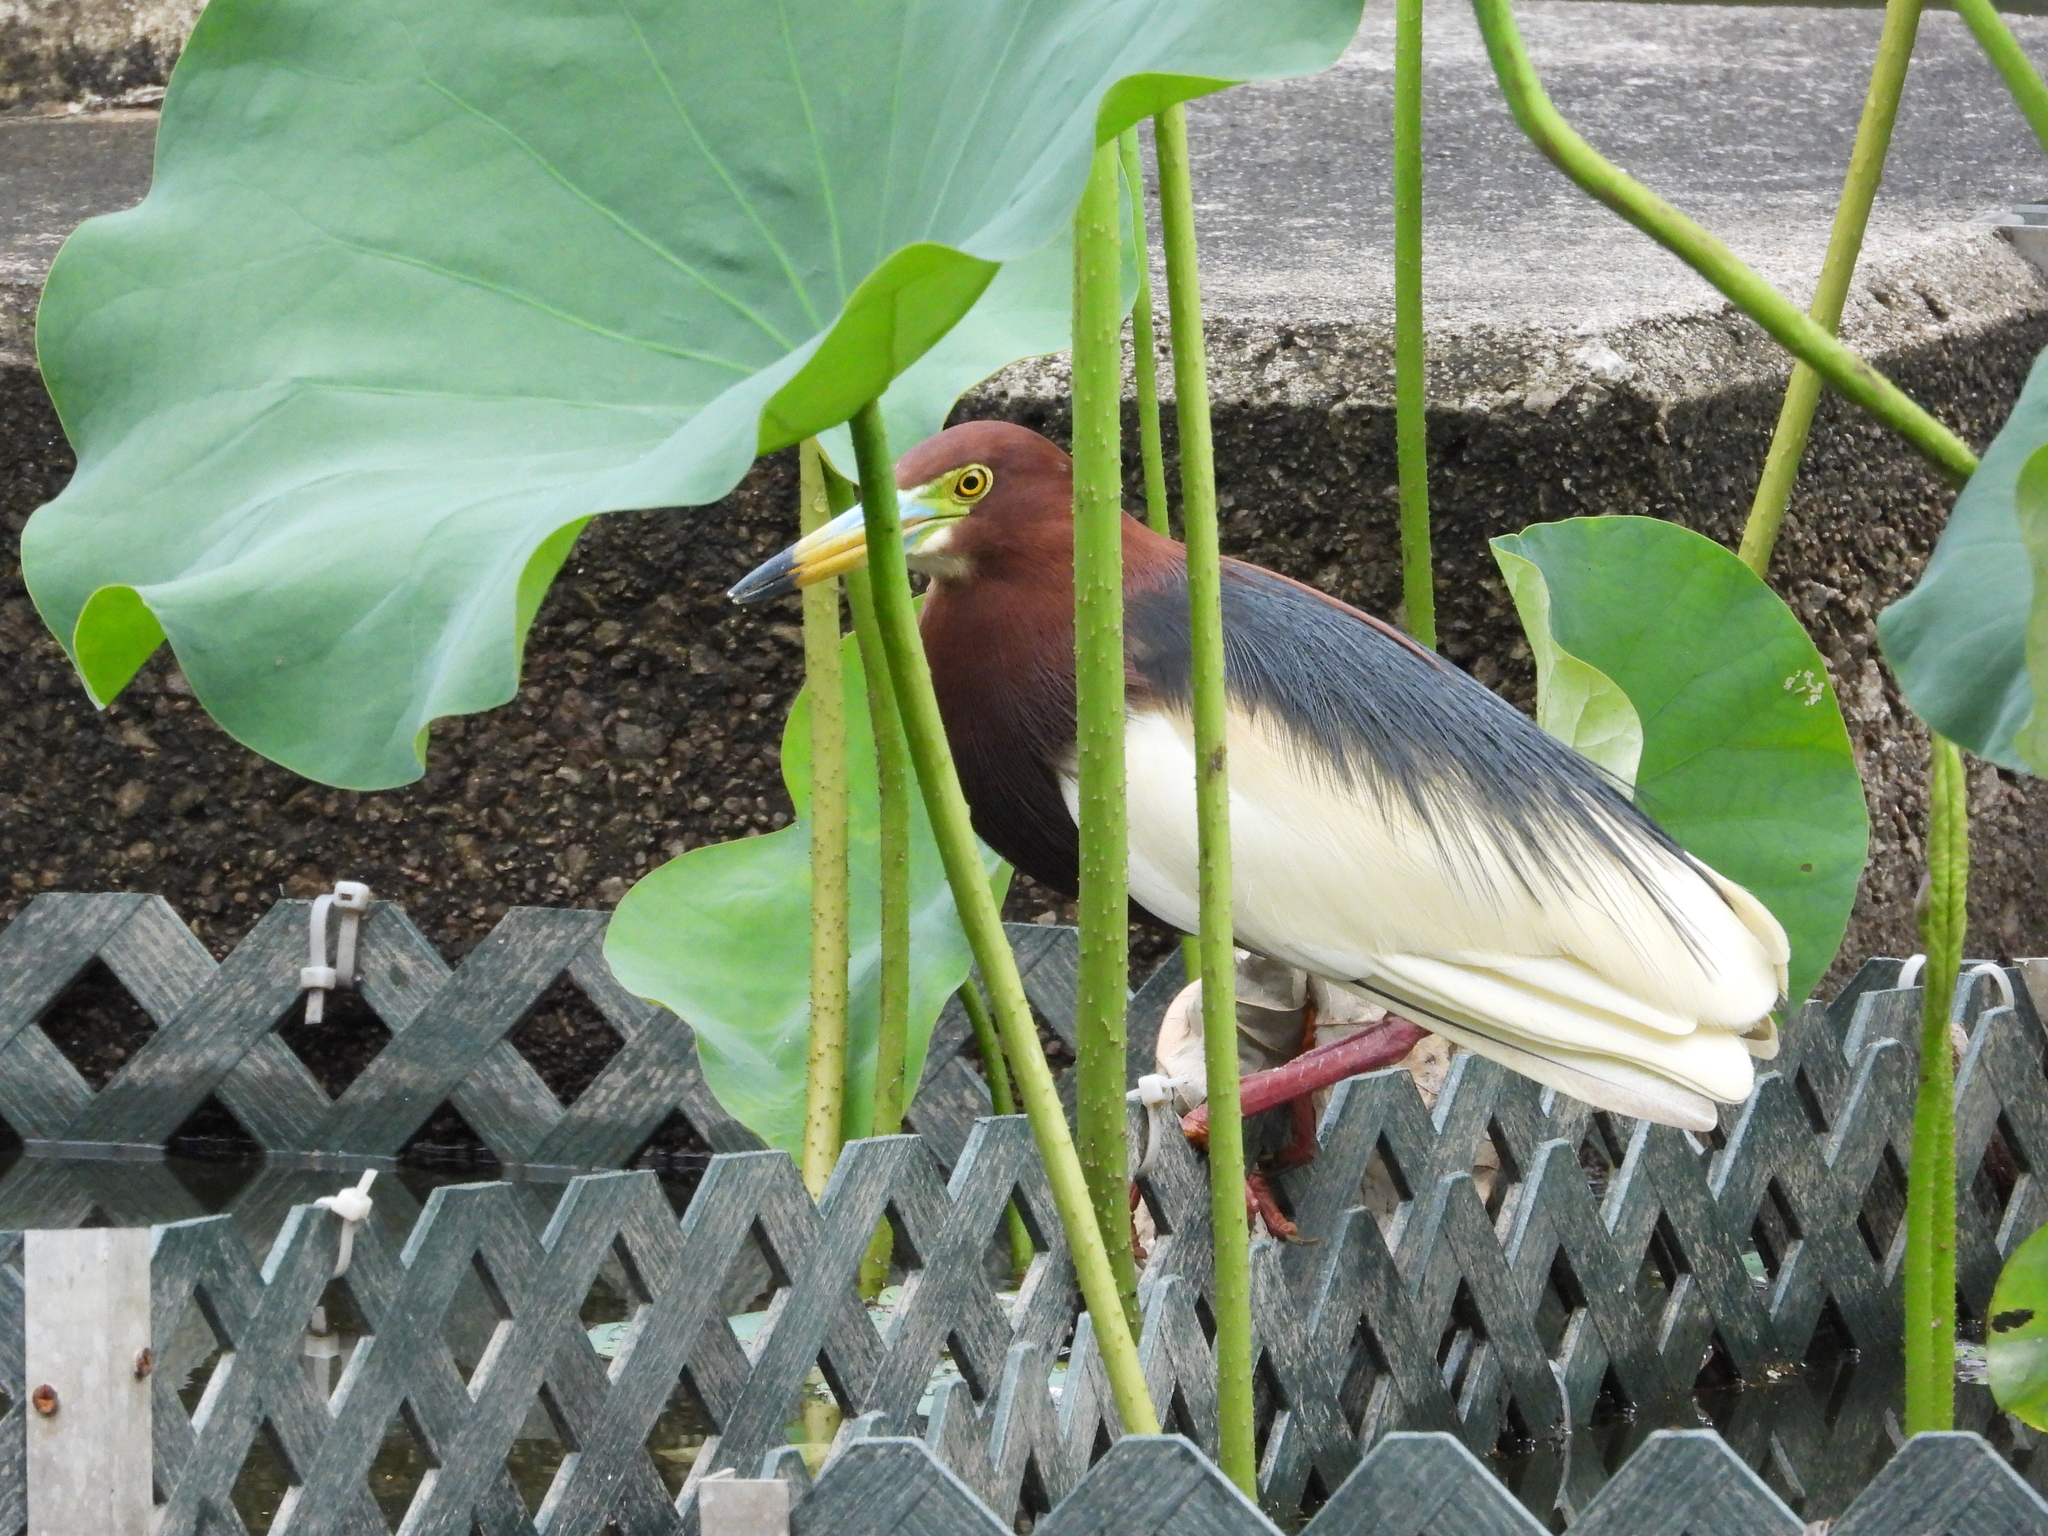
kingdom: Animalia
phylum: Chordata
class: Aves
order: Pelecaniformes
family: Ardeidae
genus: Ardeola
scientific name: Ardeola bacchus
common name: Chinese pond heron
